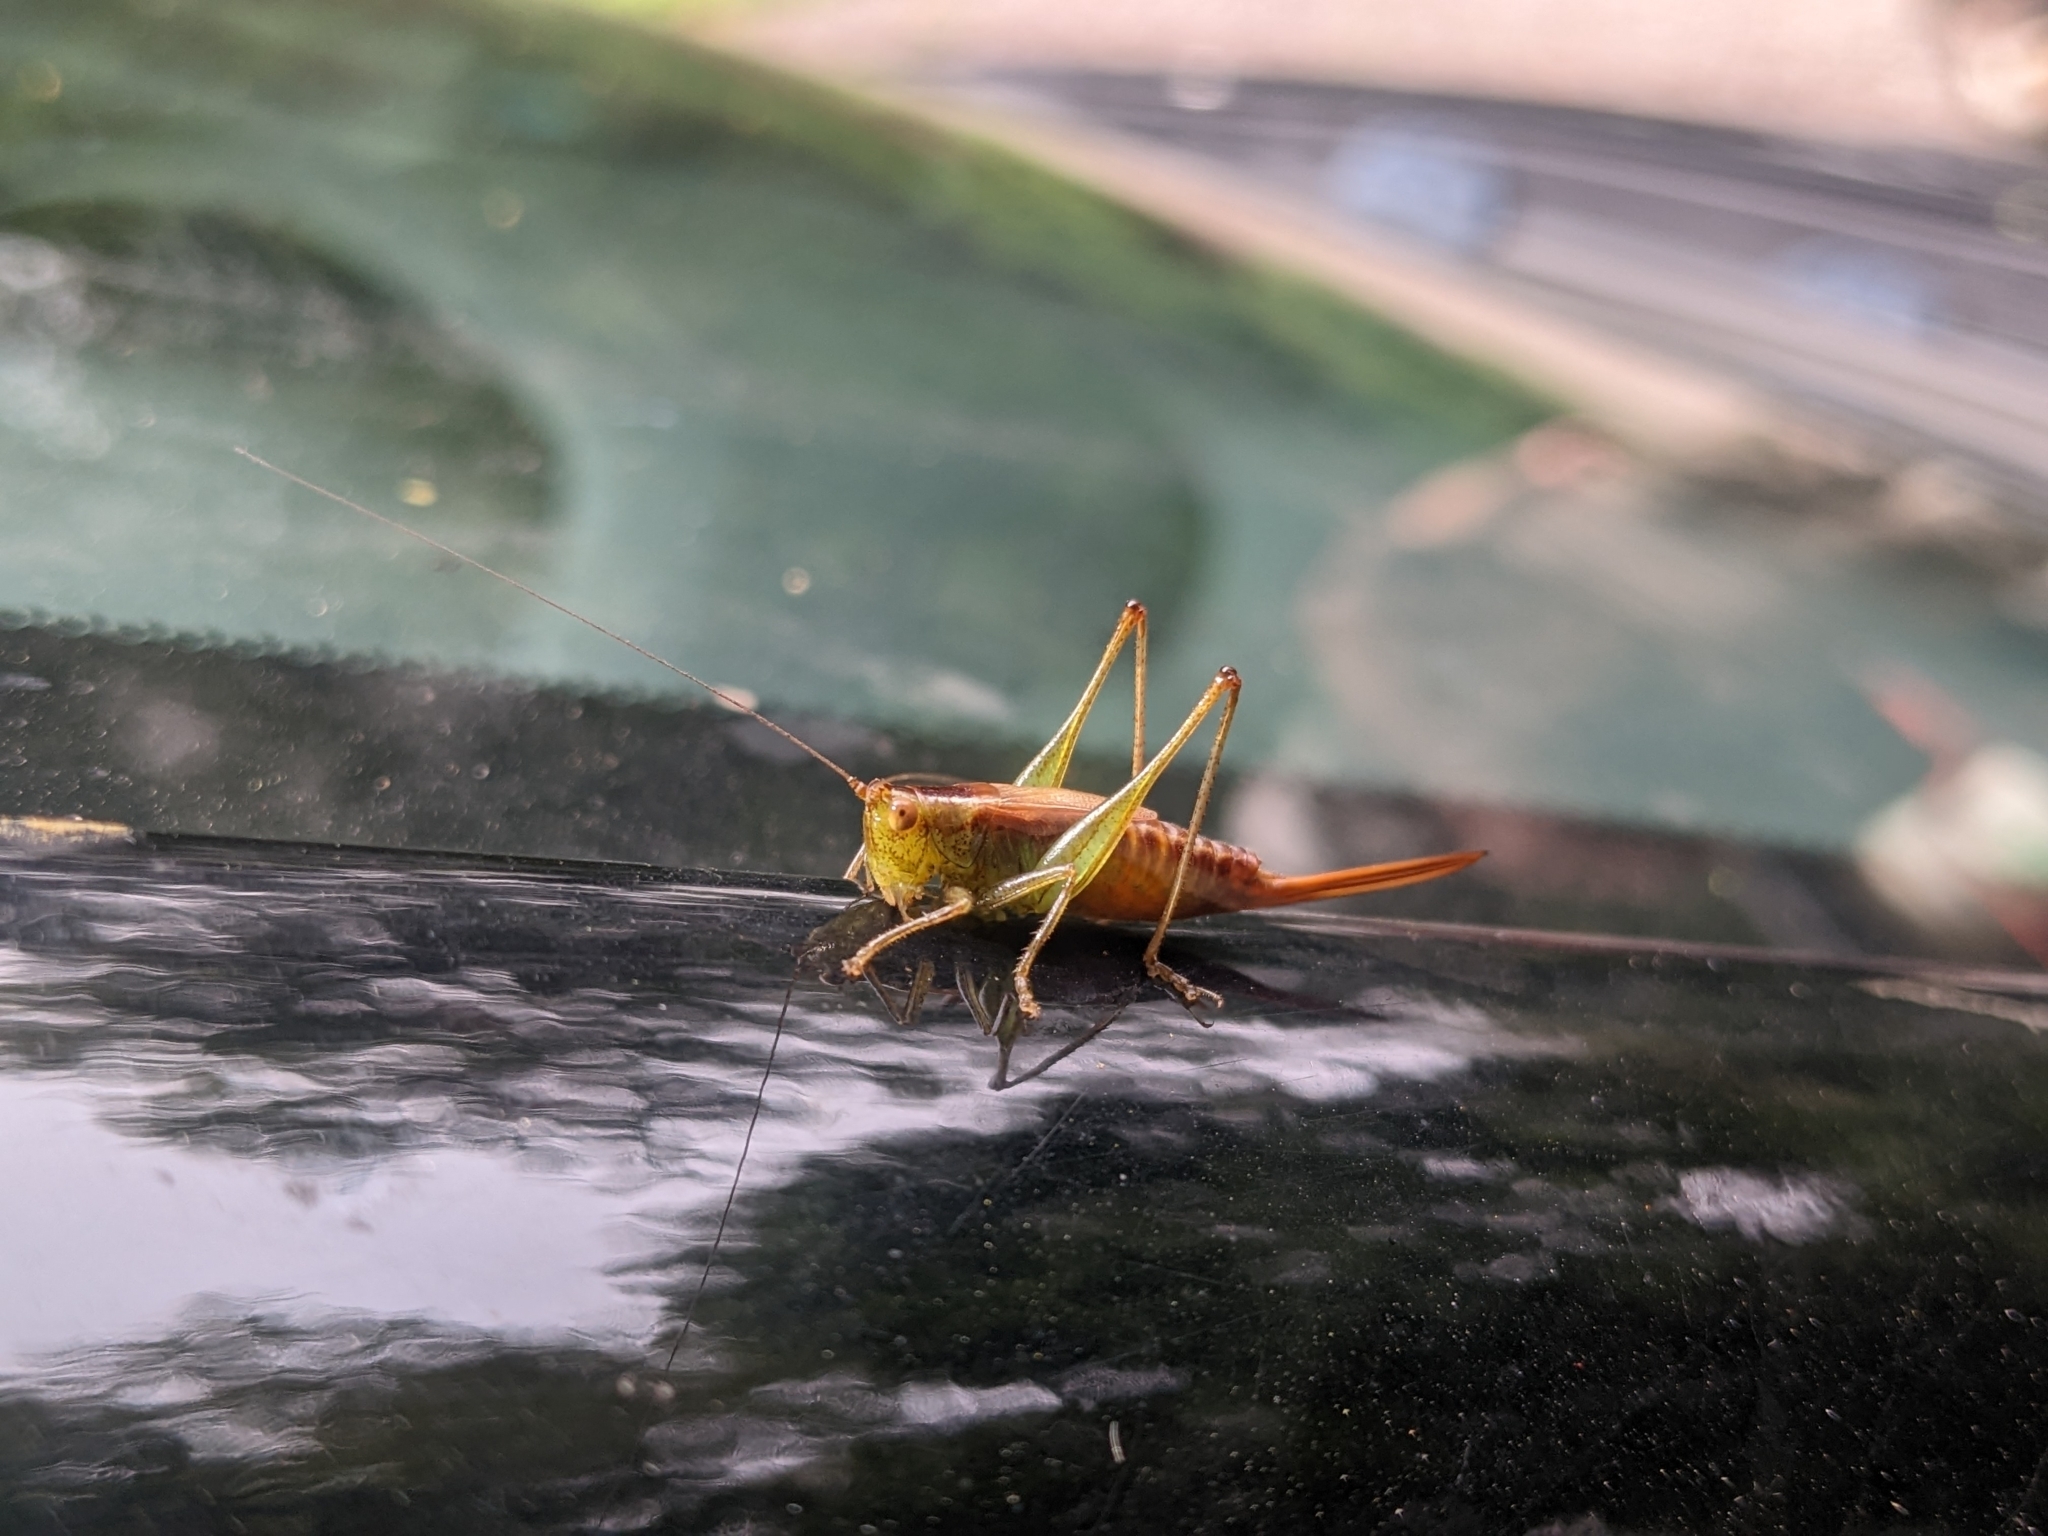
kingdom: Animalia
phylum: Arthropoda
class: Insecta
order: Orthoptera
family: Tettigoniidae
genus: Conocephalus
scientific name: Conocephalus brevipennis
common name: Short-winged meadow katydid
